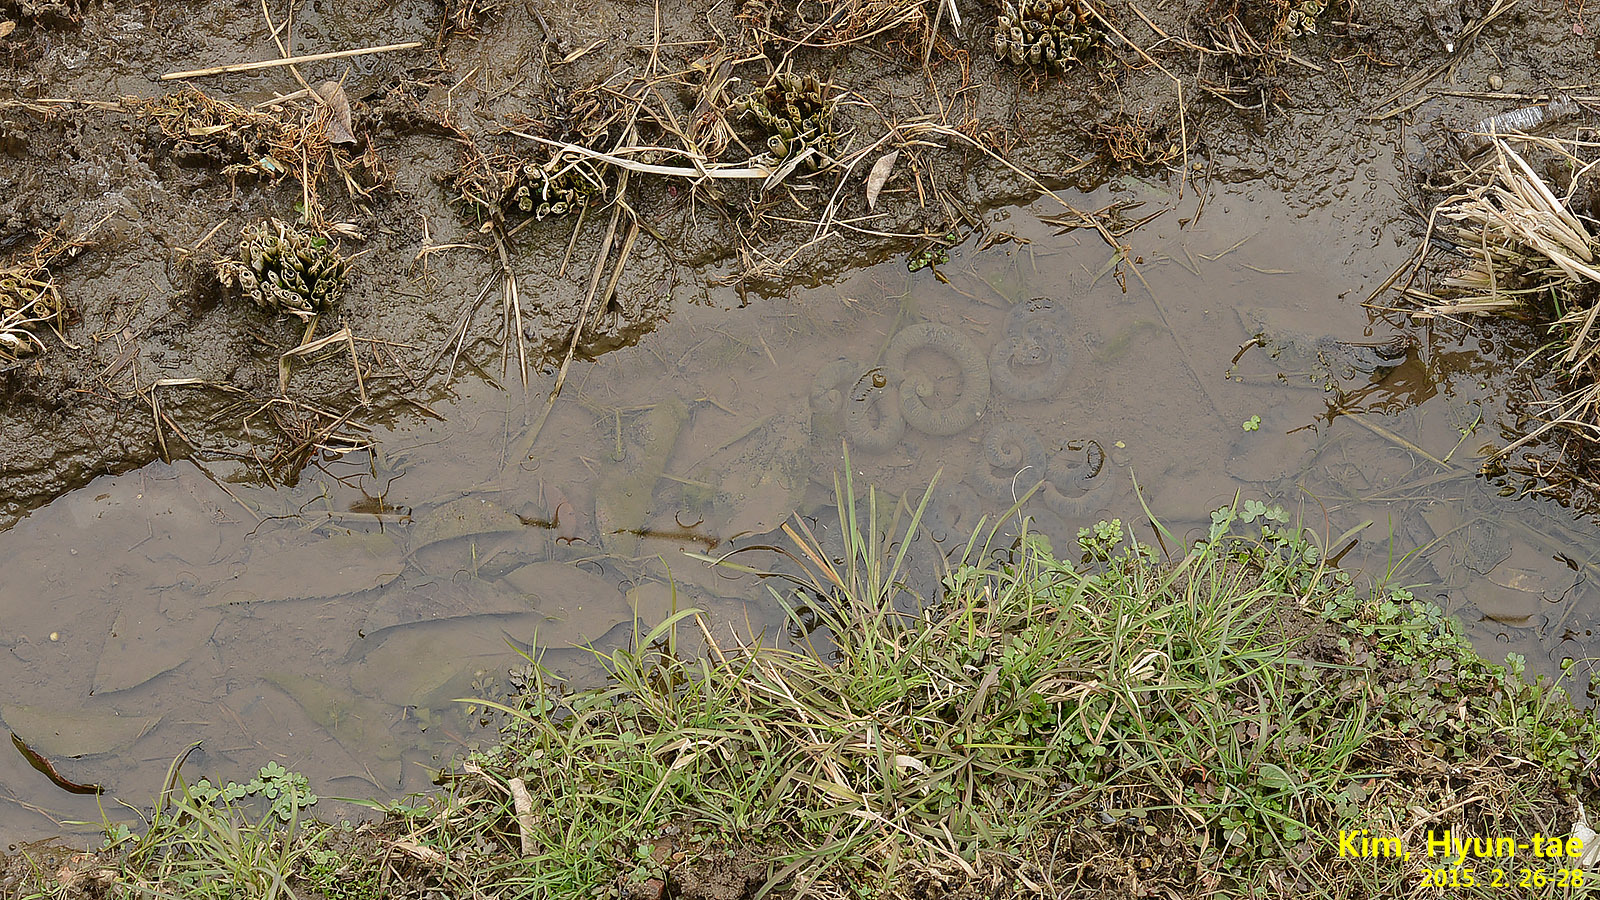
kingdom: Animalia
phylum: Chordata
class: Amphibia
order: Caudata
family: Hynobiidae
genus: Hynobius
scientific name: Hynobius leechii
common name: Gensan salamander
